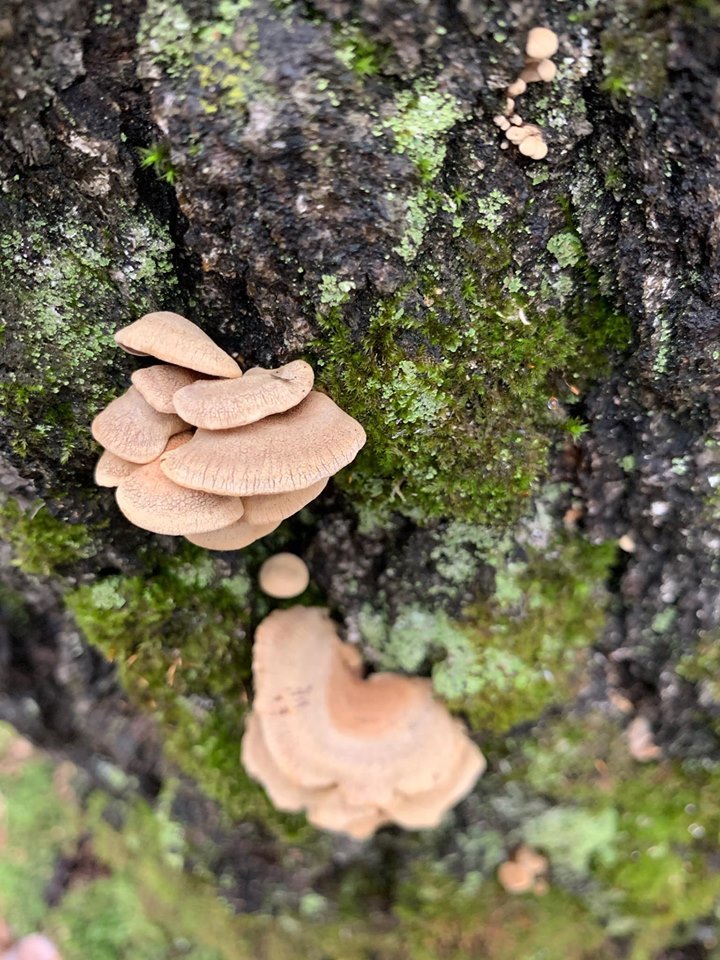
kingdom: Fungi
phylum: Basidiomycota
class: Agaricomycetes
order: Agaricales
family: Mycenaceae
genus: Panellus
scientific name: Panellus stipticus
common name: Bitter oysterling
